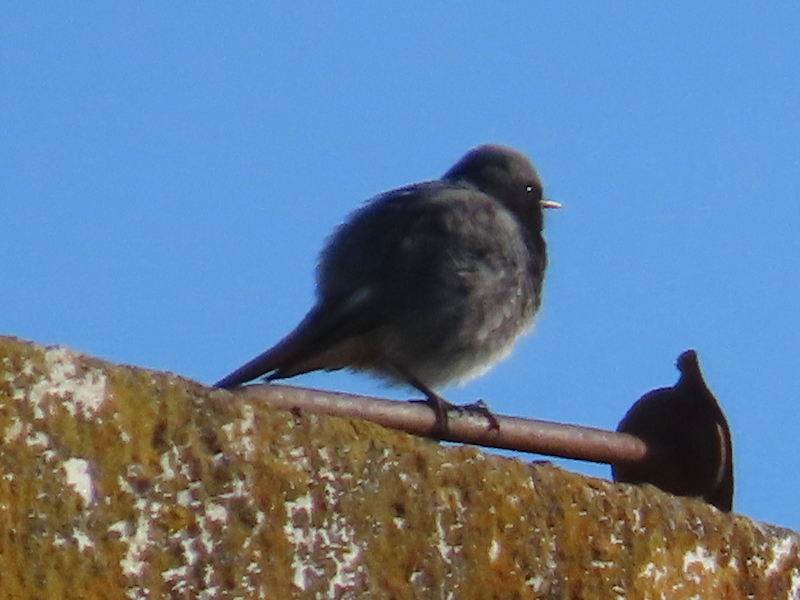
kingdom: Animalia
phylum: Chordata
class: Aves
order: Passeriformes
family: Muscicapidae
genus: Phoenicurus
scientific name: Phoenicurus ochruros
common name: Black redstart
